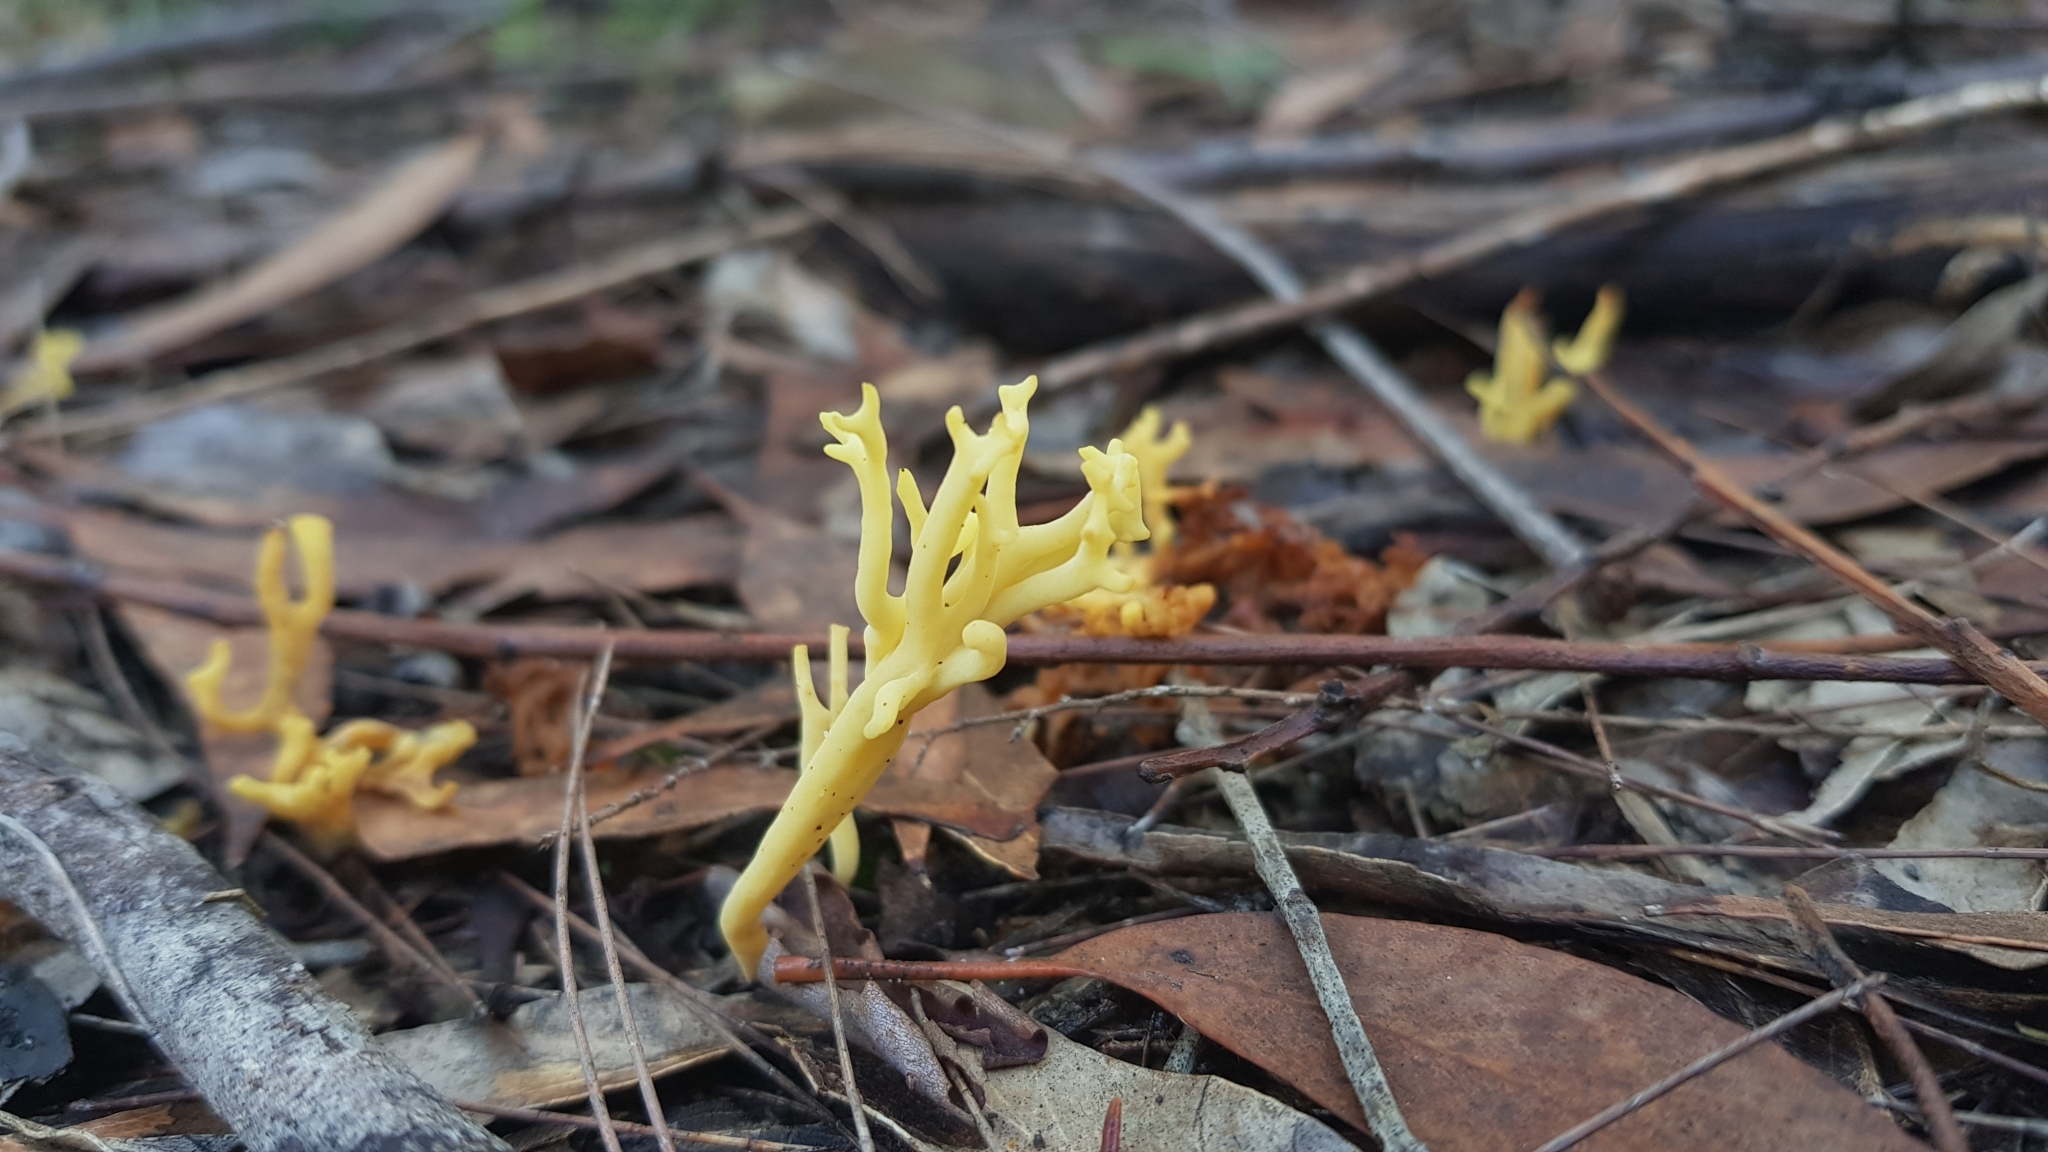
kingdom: Fungi
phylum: Basidiomycota
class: Agaricomycetes
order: Gomphales
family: Gomphaceae
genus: Ramaria
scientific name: Ramaria lorithamnus
